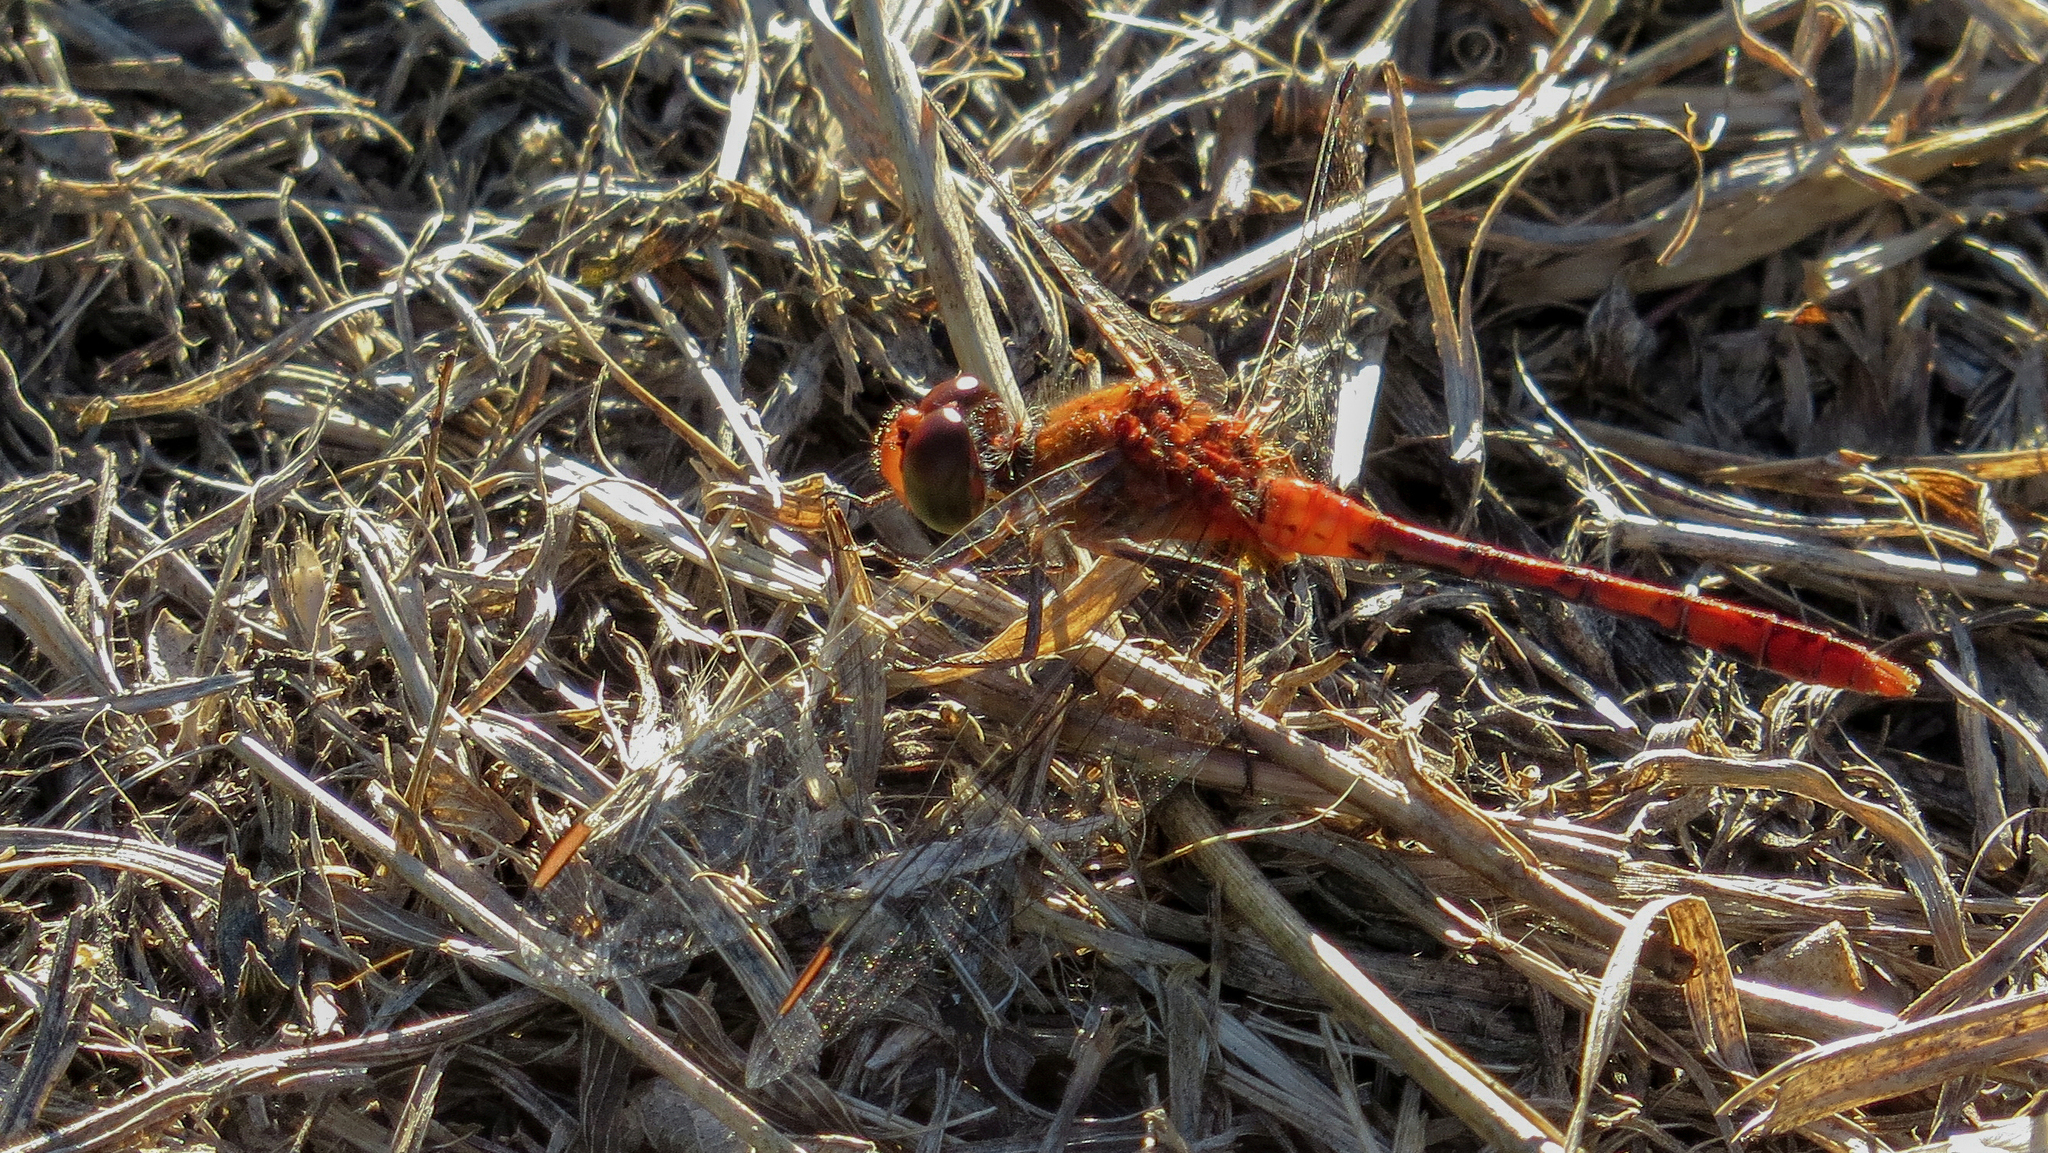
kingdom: Animalia
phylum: Arthropoda
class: Insecta
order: Odonata
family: Libellulidae
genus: Diplacodes
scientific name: Diplacodes bipunctata
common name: Red percher dragonfly
